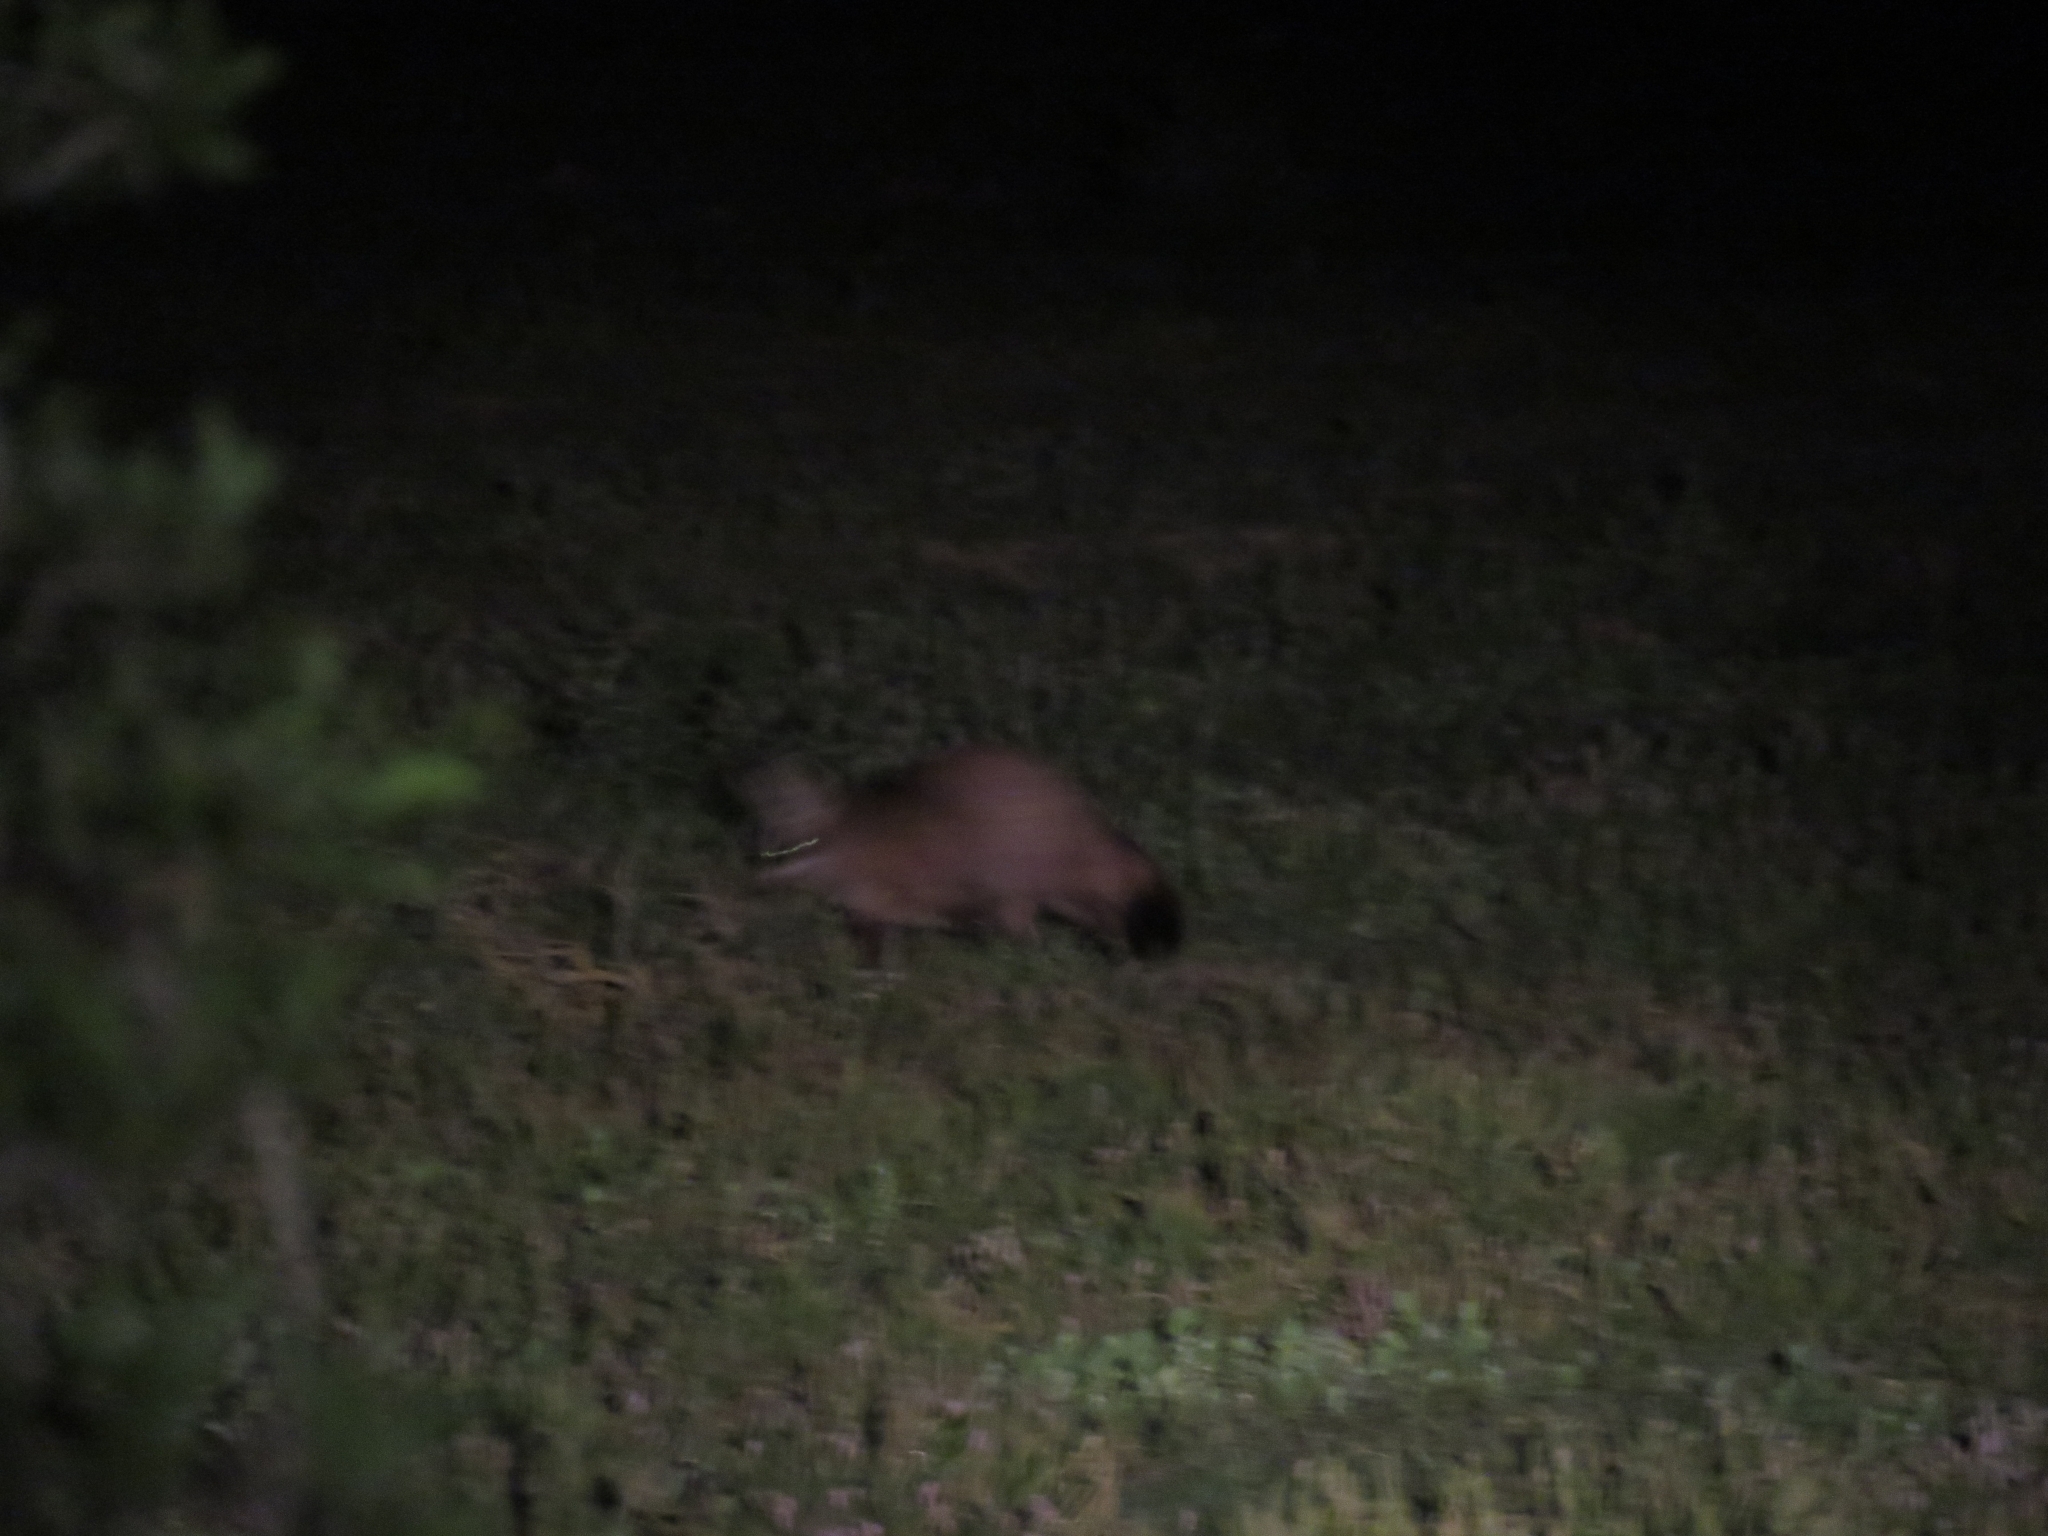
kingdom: Animalia
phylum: Chordata
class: Mammalia
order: Carnivora
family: Canidae
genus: Otocyon
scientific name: Otocyon megalotis
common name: Bat-eared fox
